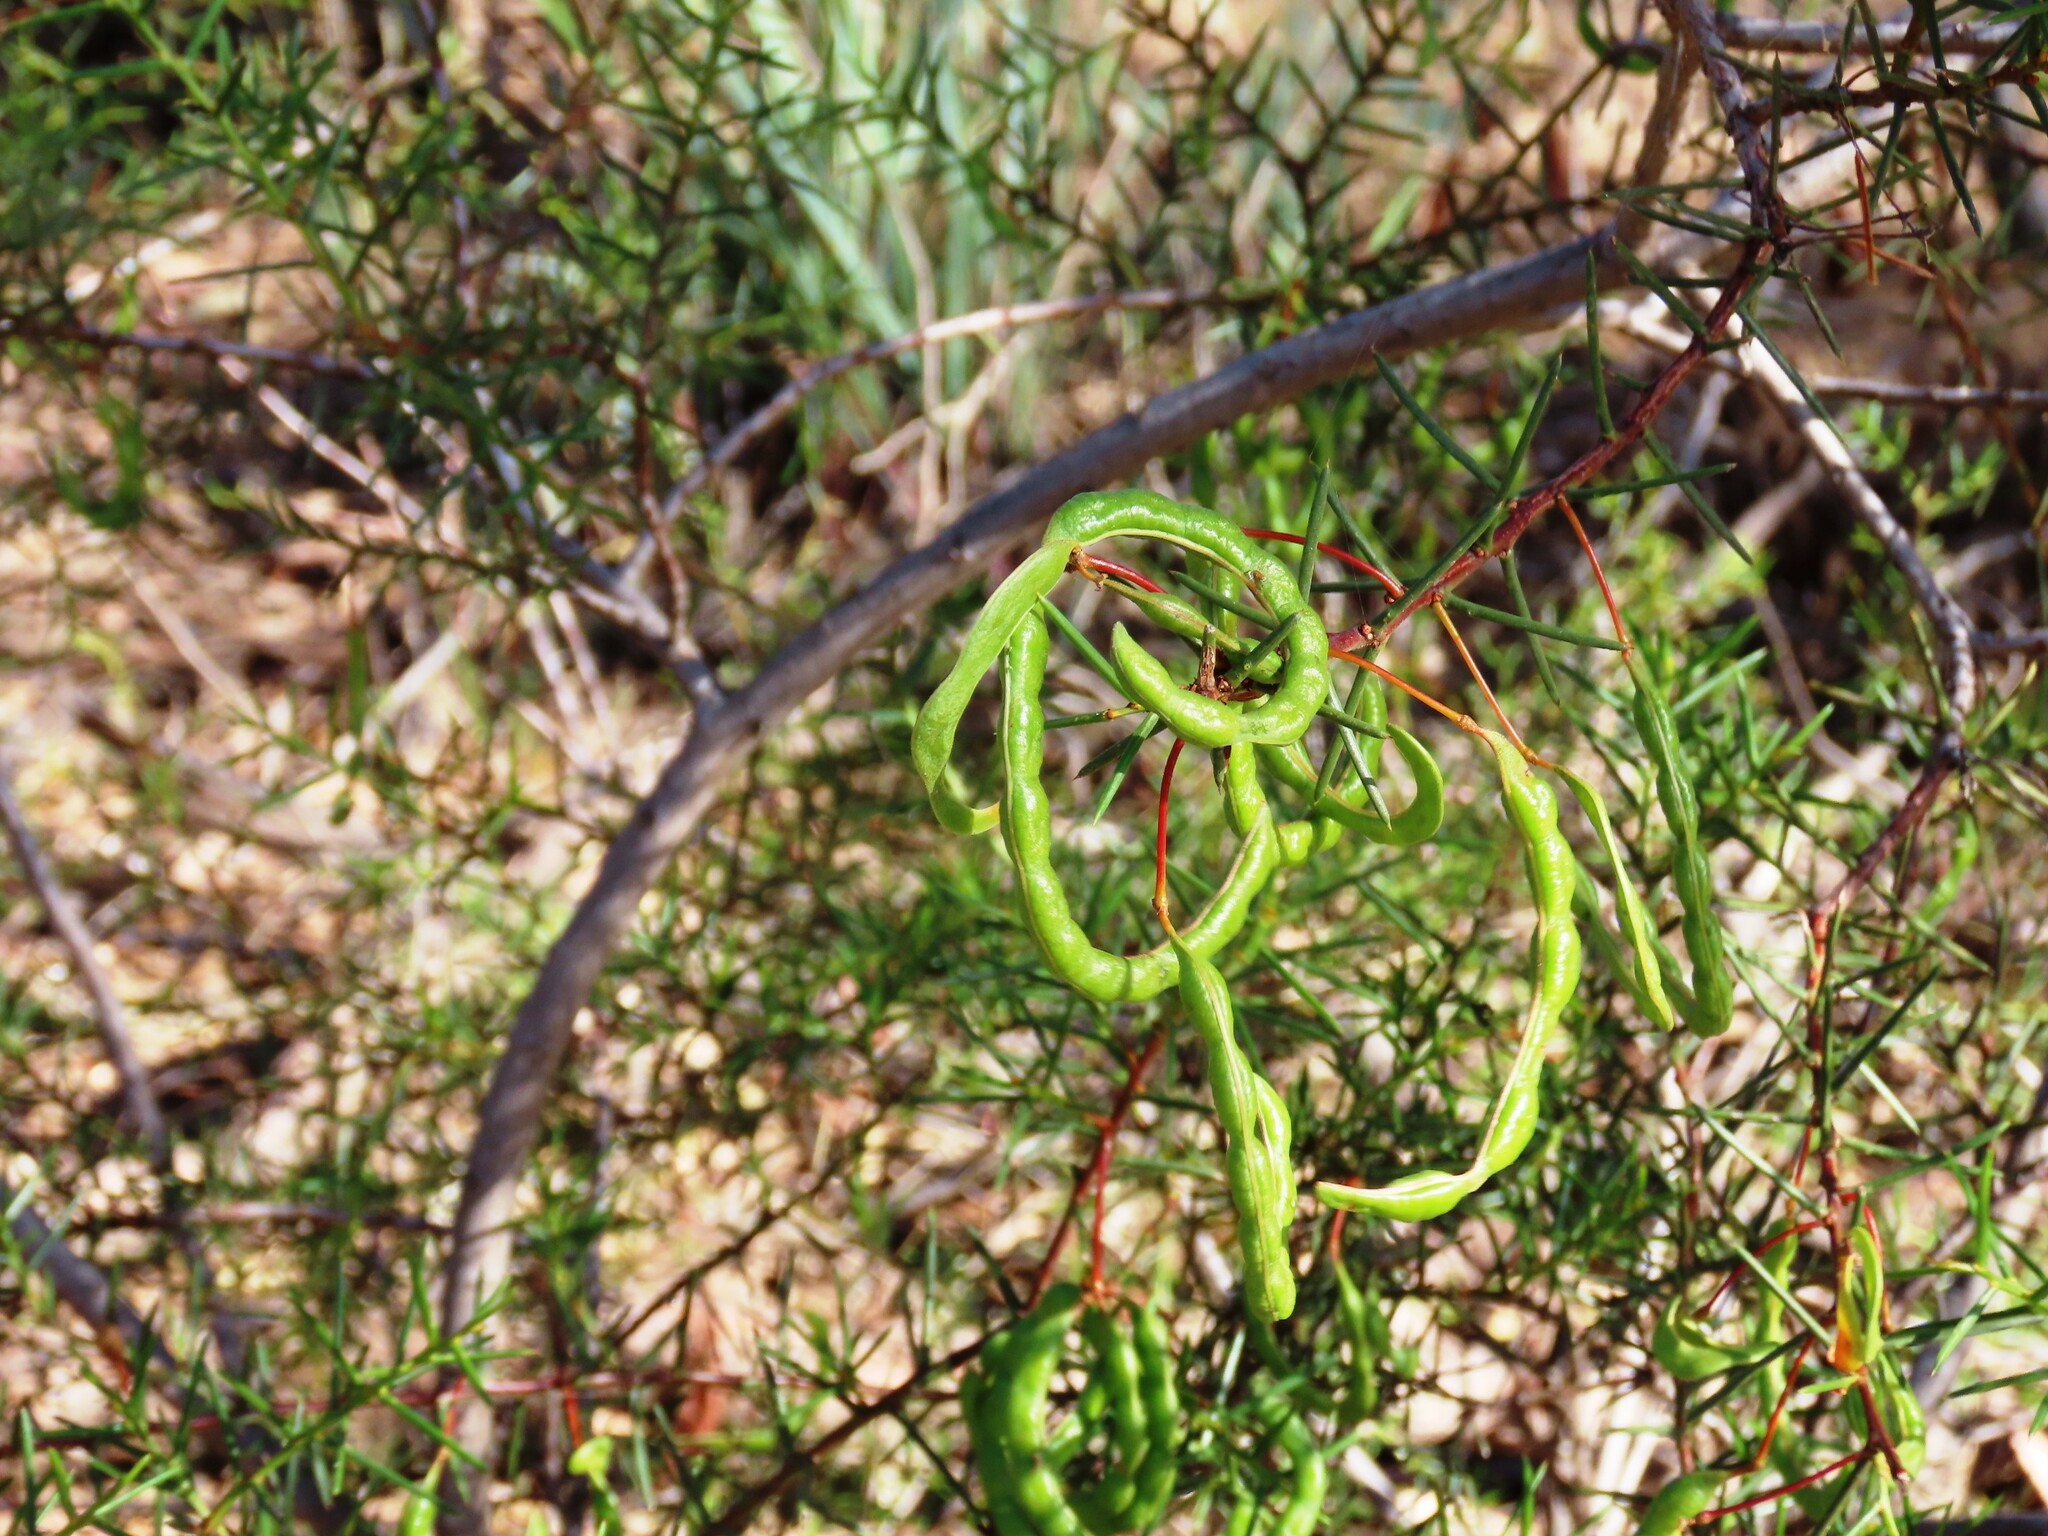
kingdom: Plantae
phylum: Tracheophyta
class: Magnoliopsida
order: Fabales
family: Fabaceae
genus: Acacia
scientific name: Acacia genistifolia
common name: Early wattle
